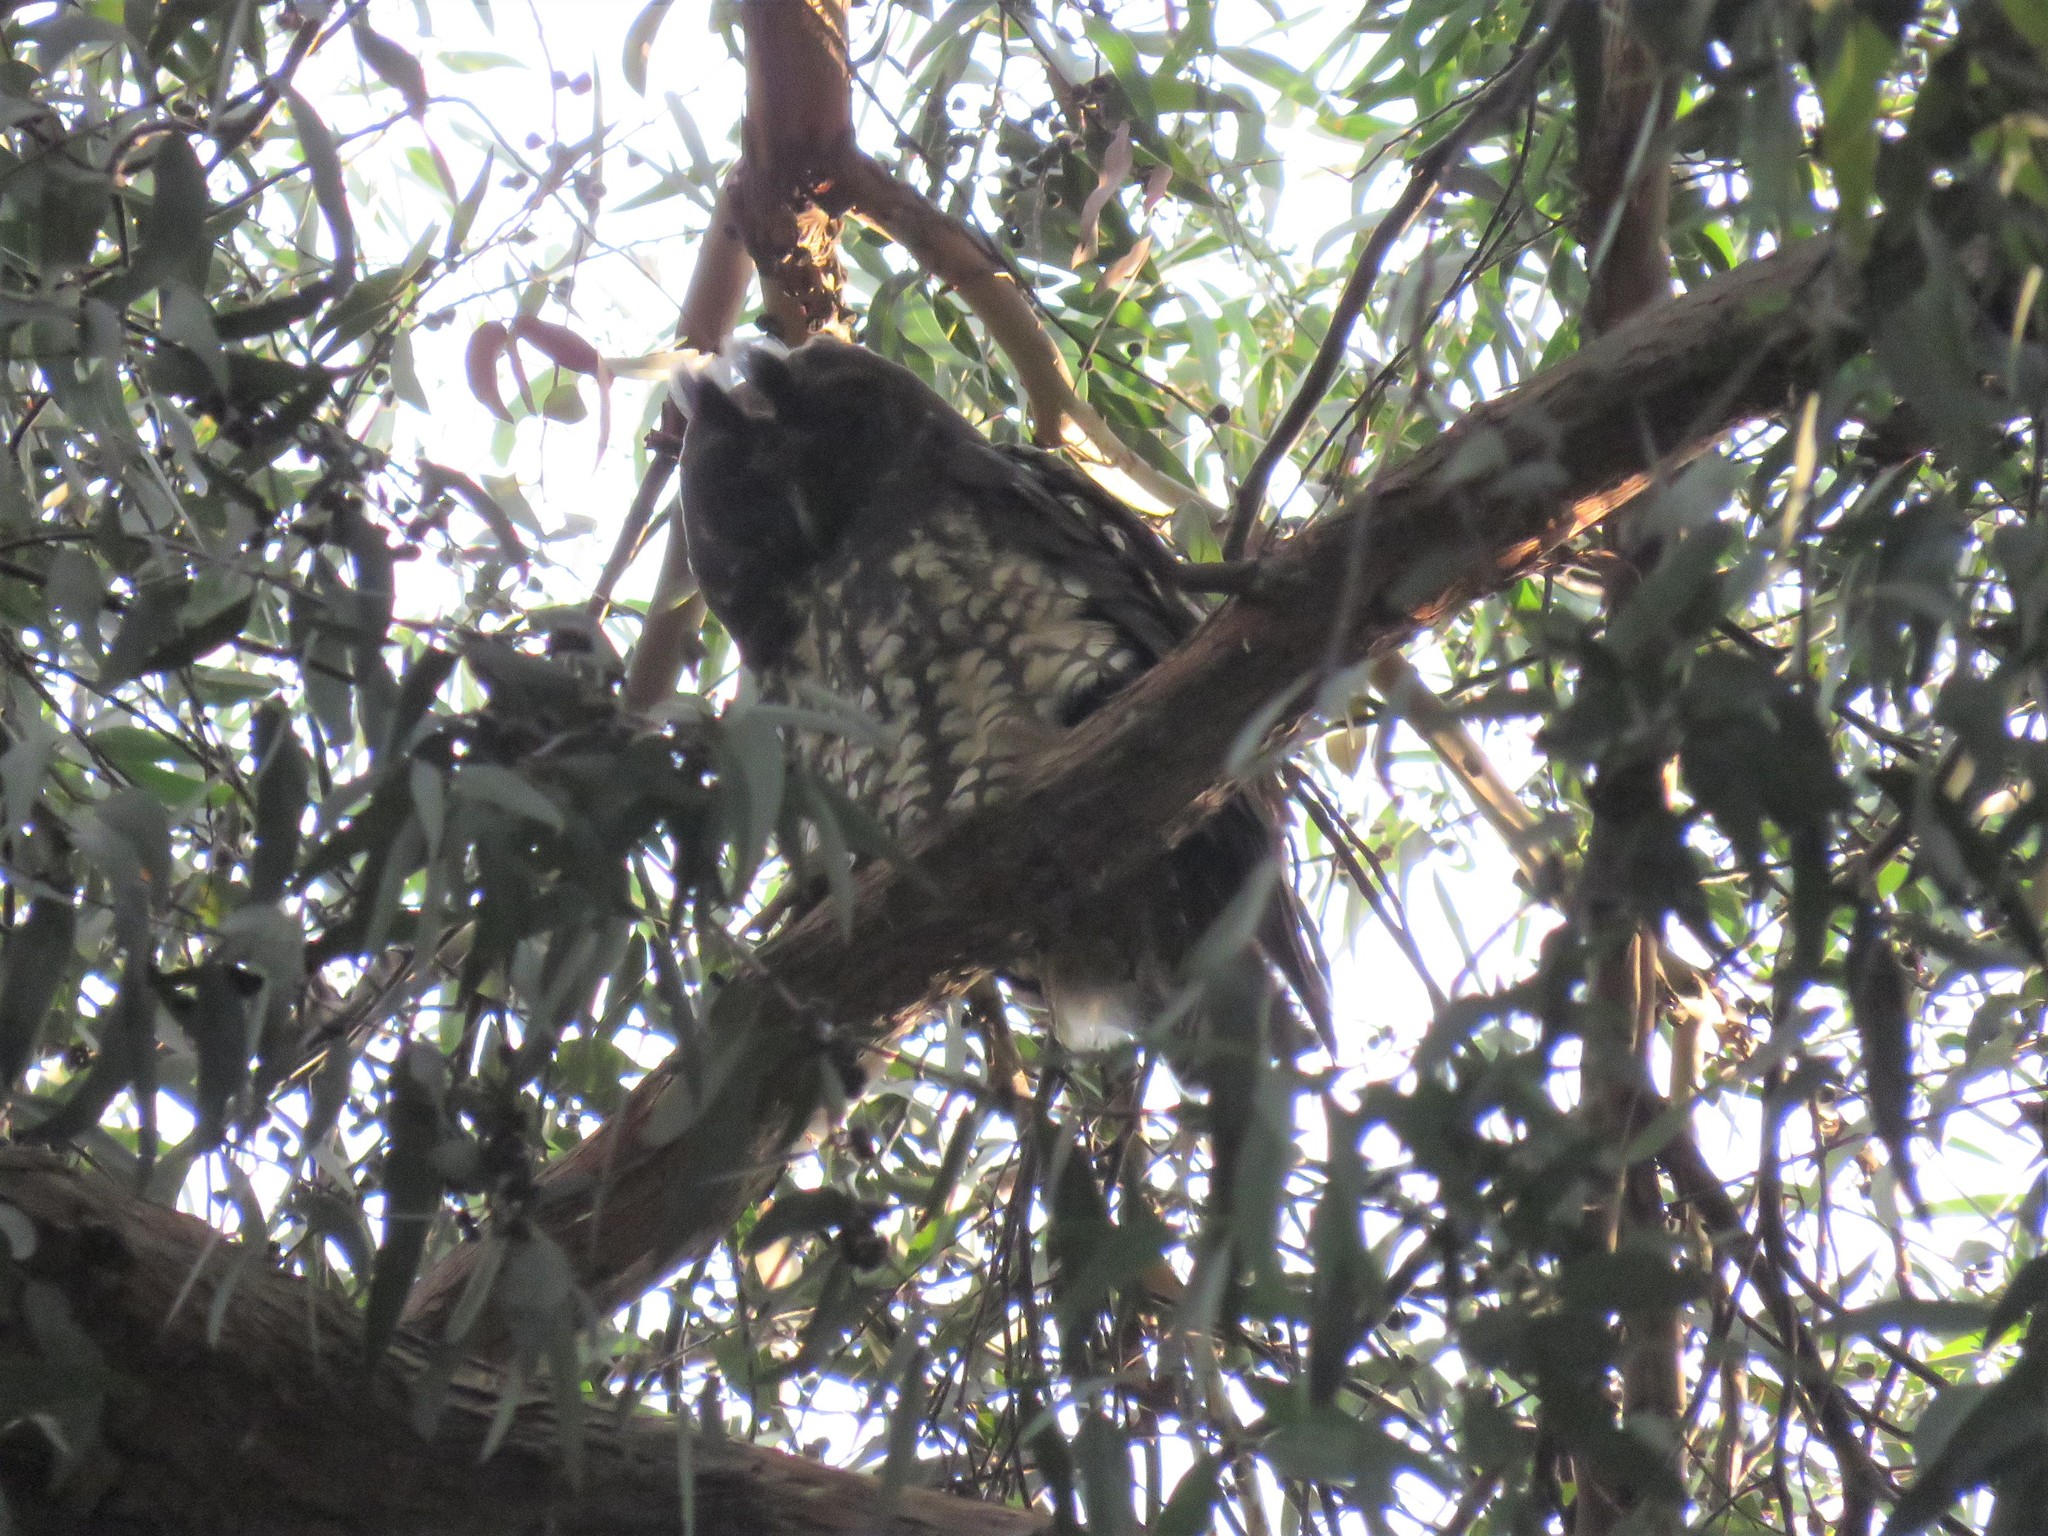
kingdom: Animalia
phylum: Chordata
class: Aves
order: Strigiformes
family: Strigidae
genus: Asio
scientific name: Asio stygius
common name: Stygian owl
